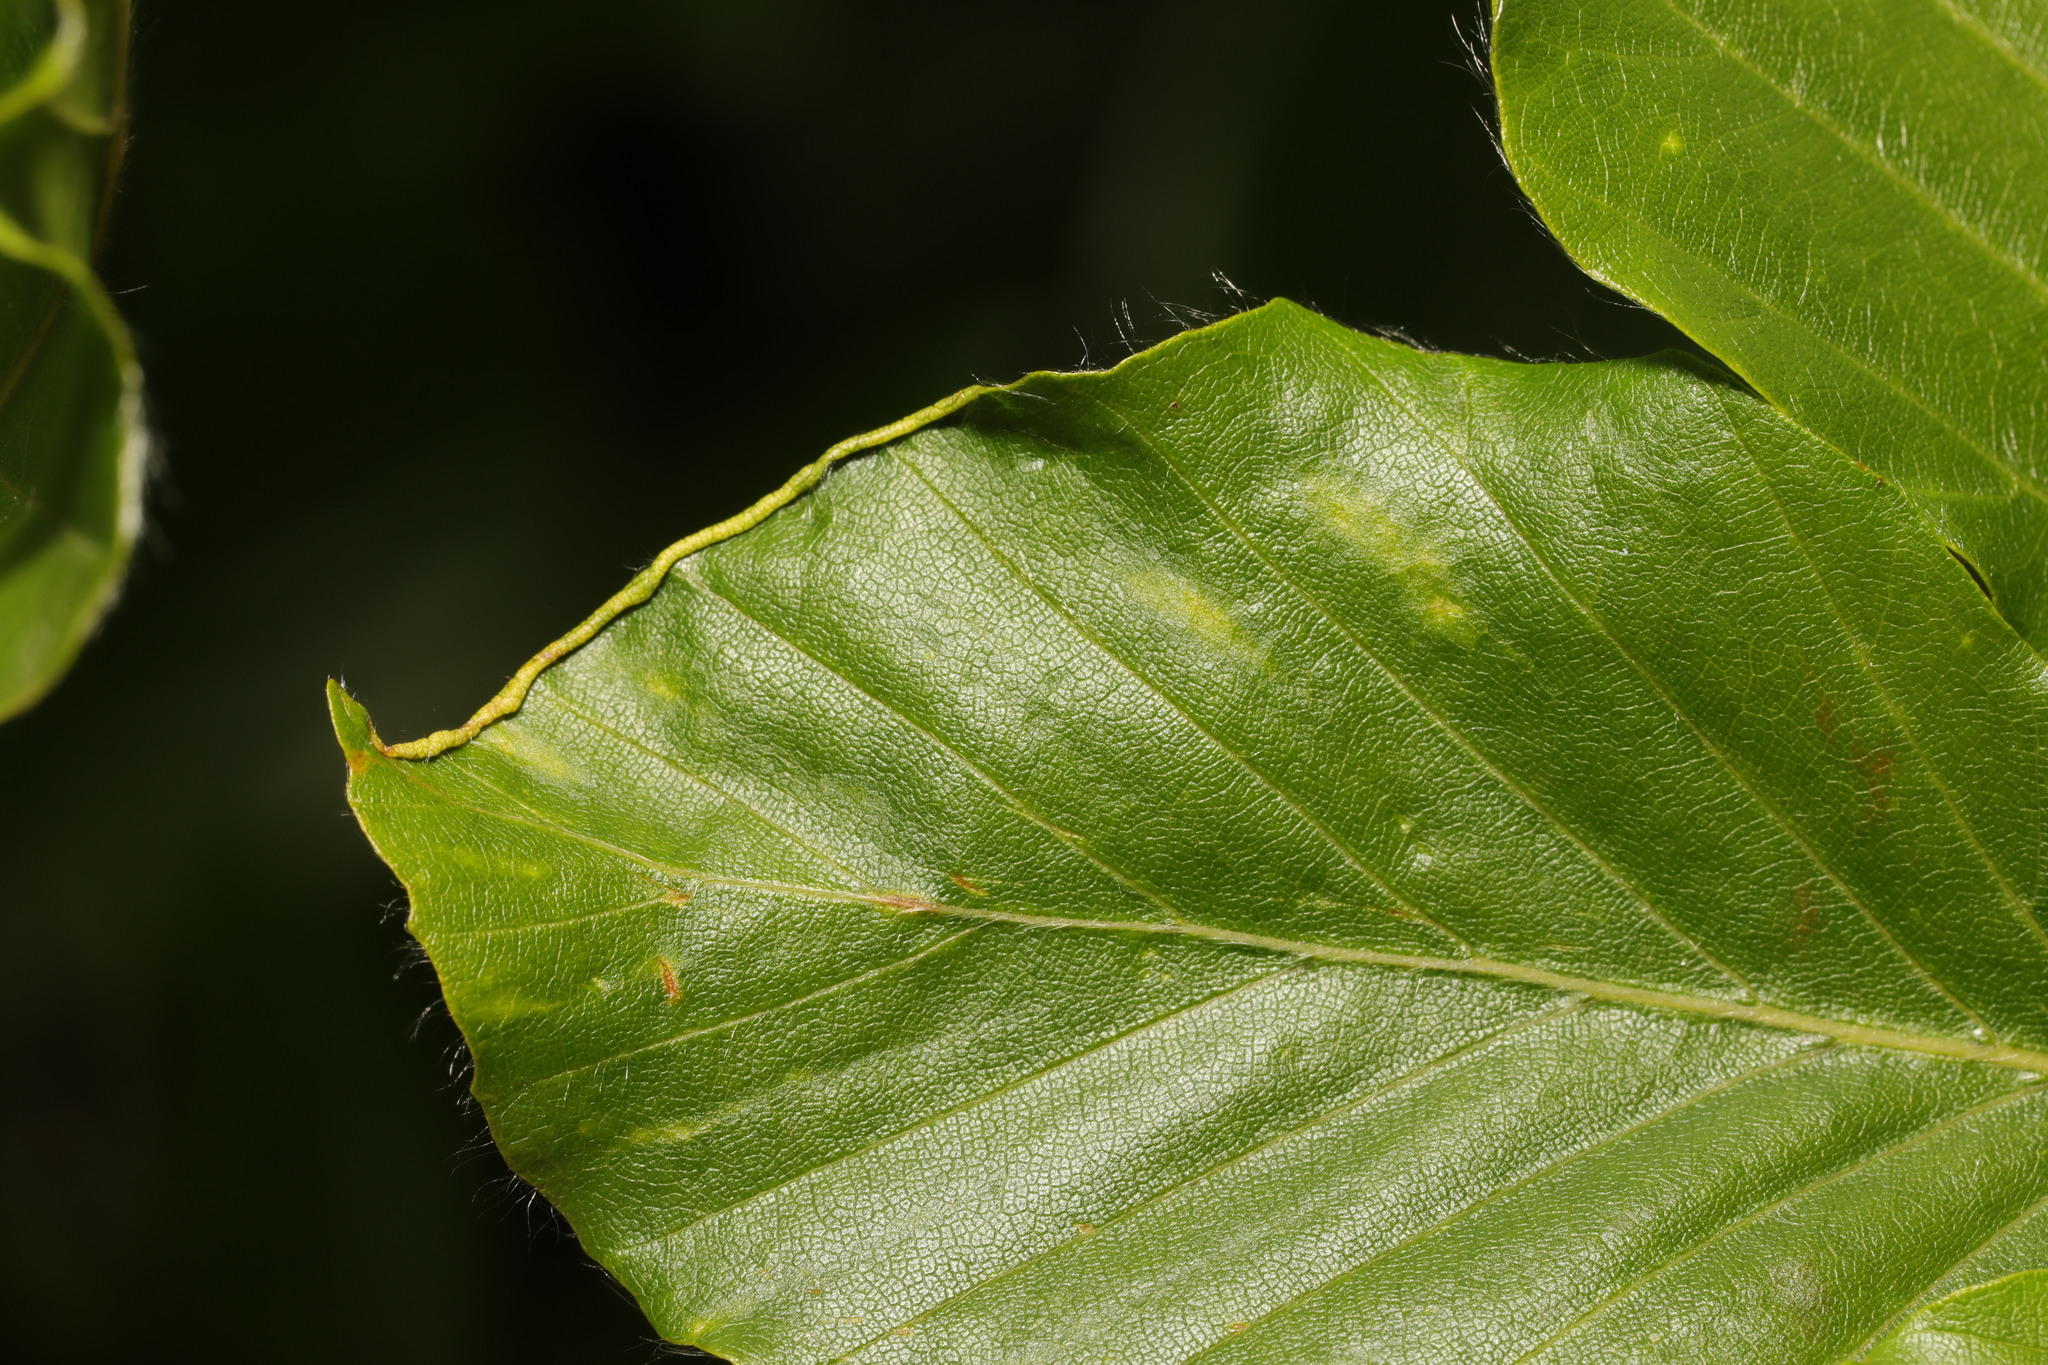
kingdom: Animalia
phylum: Arthropoda
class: Arachnida
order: Trombidiformes
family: Eriophyidae
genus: Acalitus
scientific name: Acalitus stenaspis
